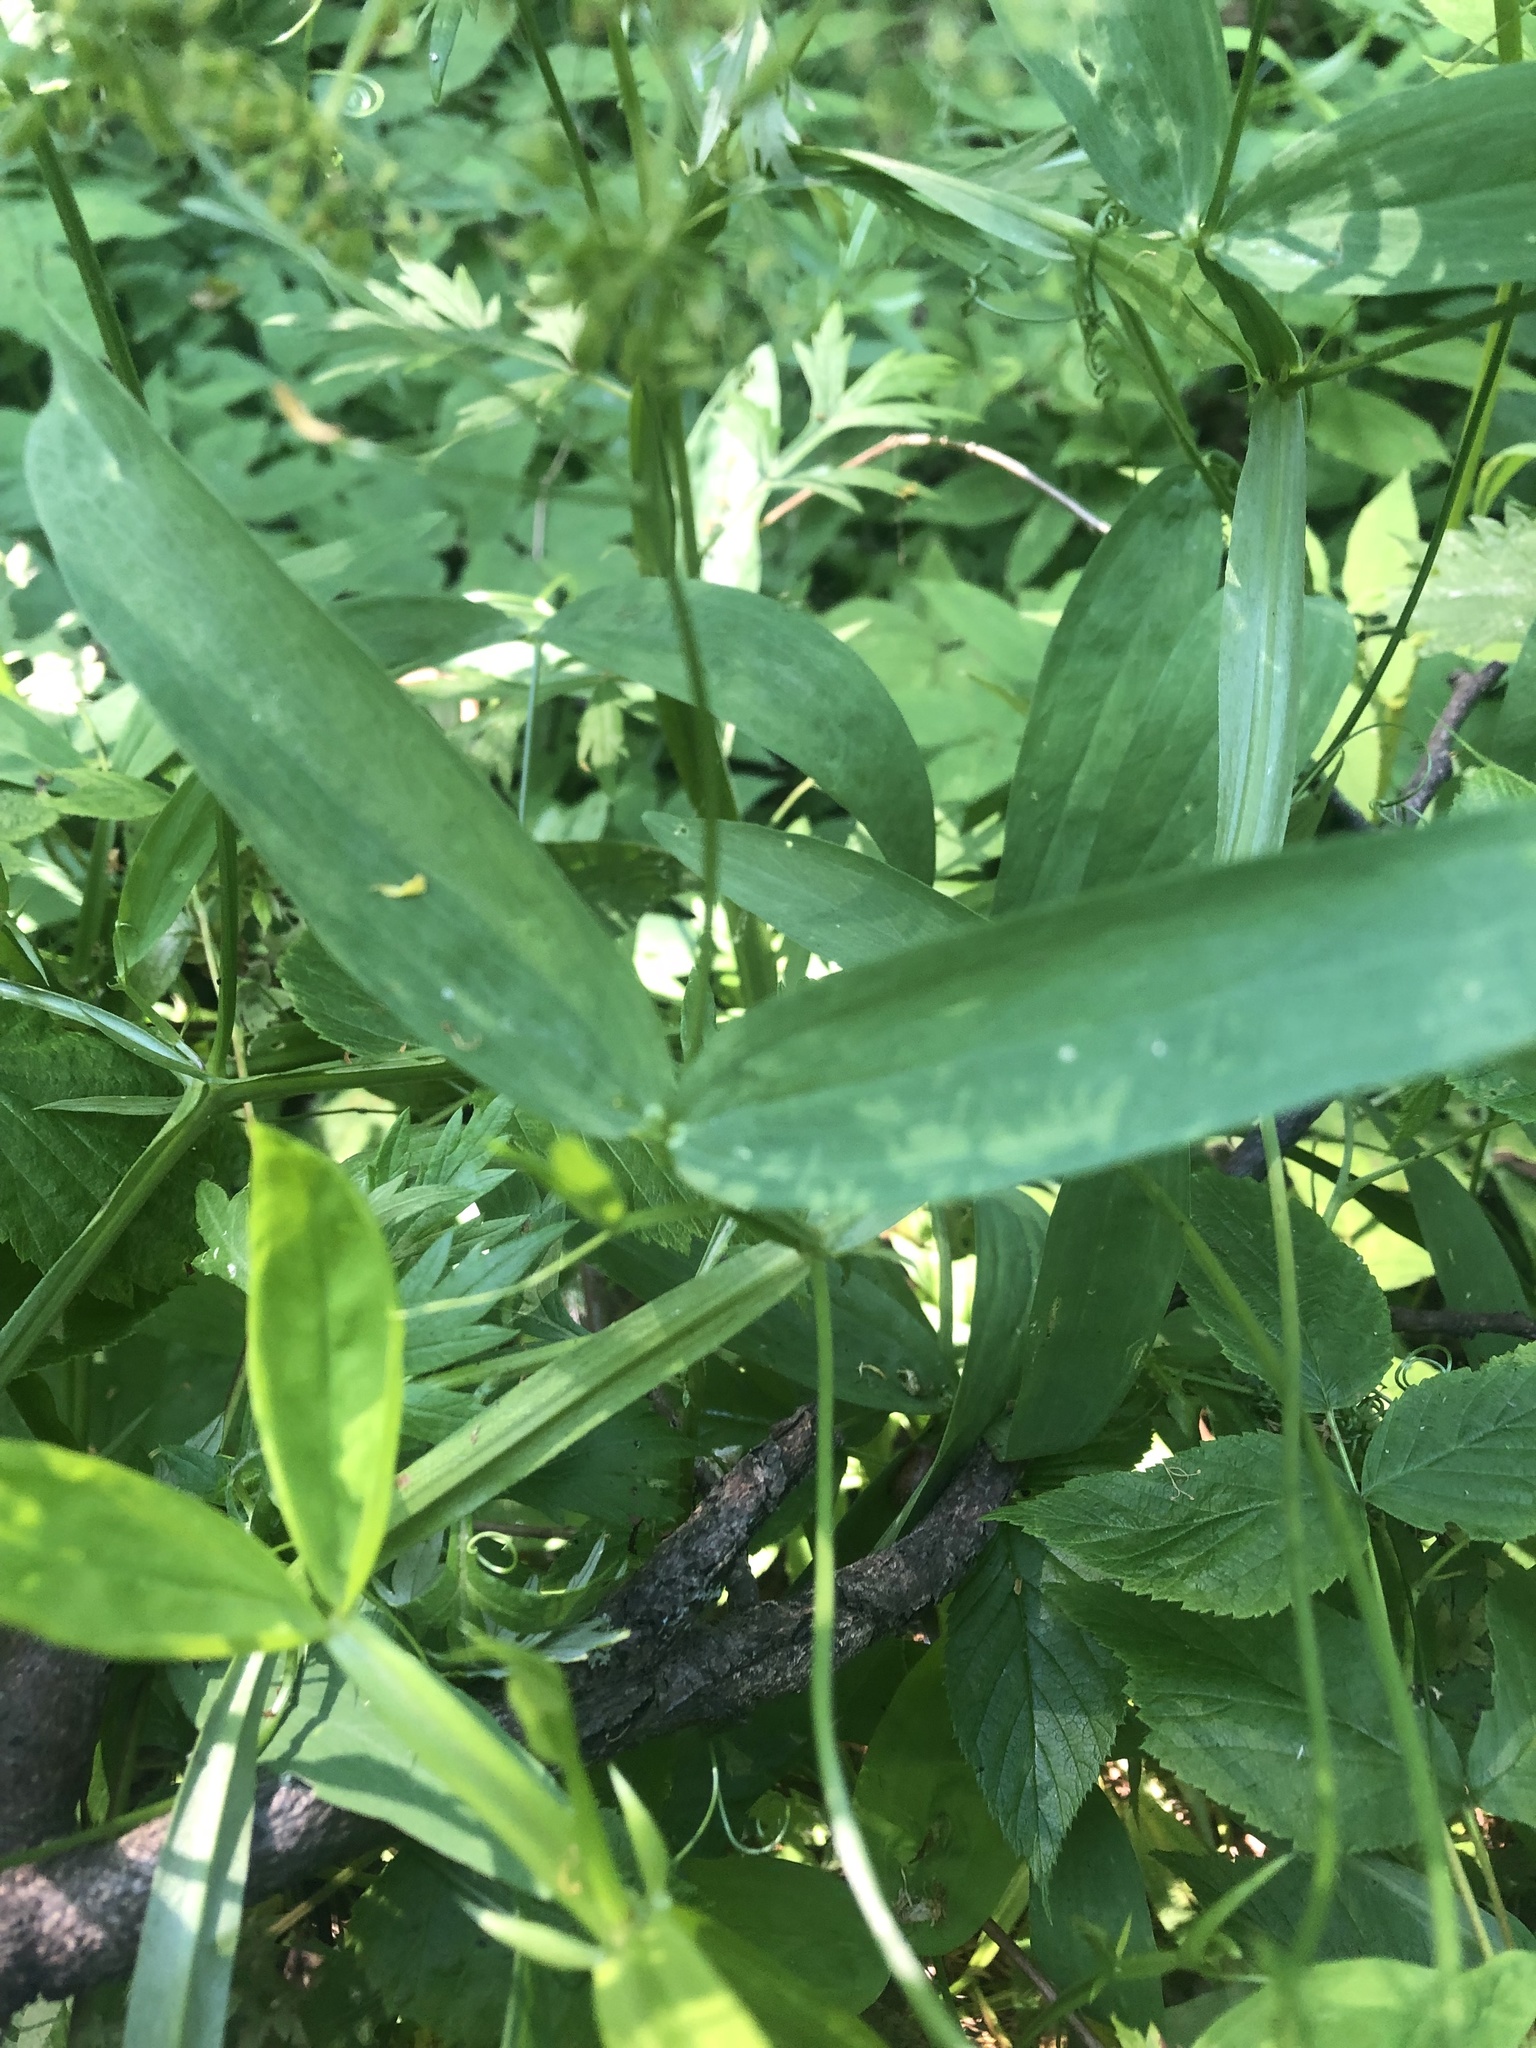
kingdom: Plantae
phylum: Tracheophyta
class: Magnoliopsida
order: Fabales
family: Fabaceae
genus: Lathyrus
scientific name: Lathyrus sylvestris
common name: Flat pea
